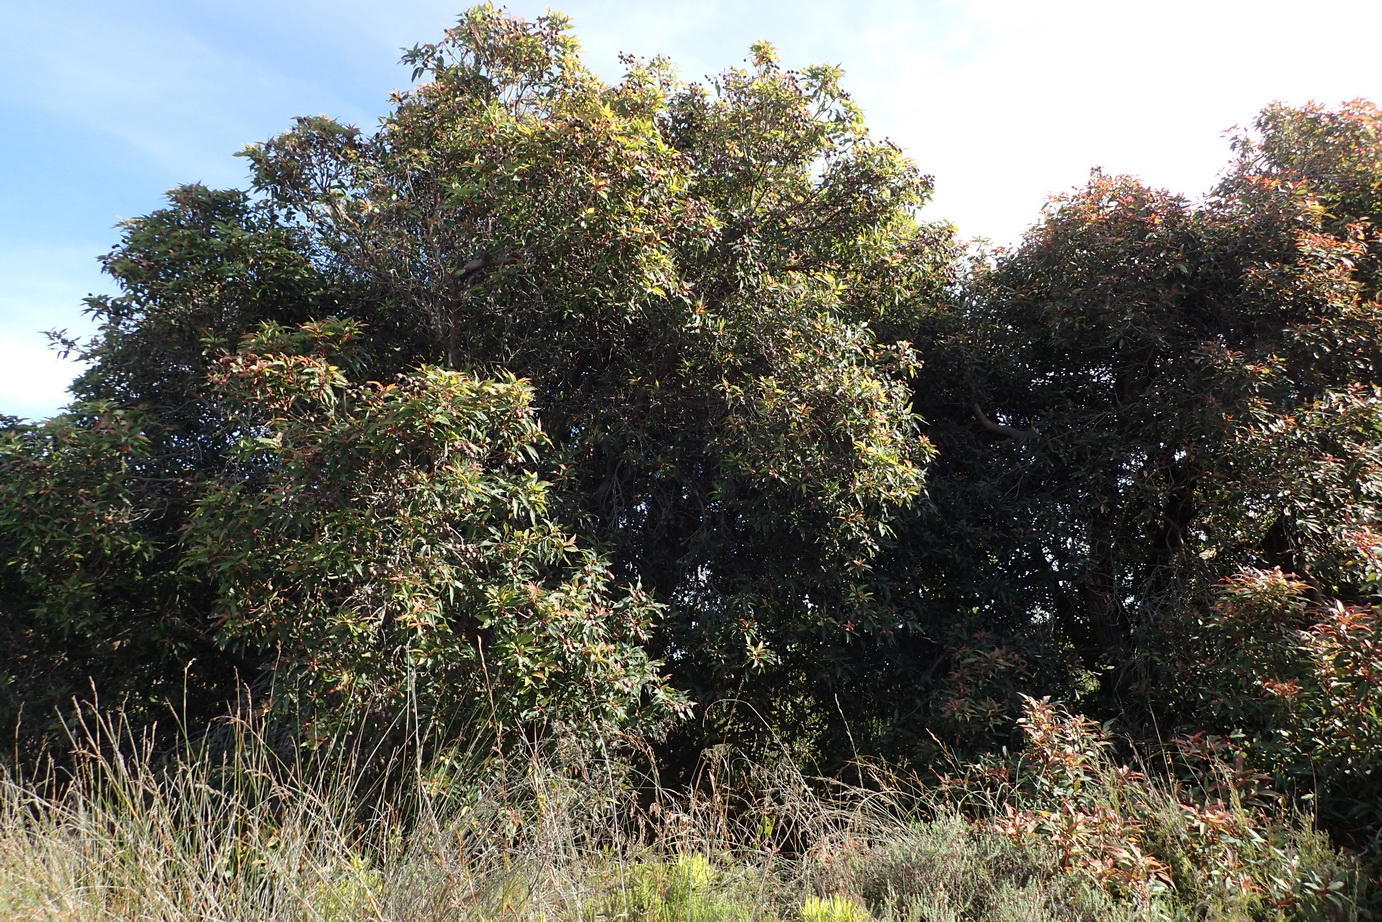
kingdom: Plantae
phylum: Tracheophyta
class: Magnoliopsida
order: Myrtales
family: Myrtaceae
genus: Corymbia
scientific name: Corymbia ficifolia
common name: Redflower gum
